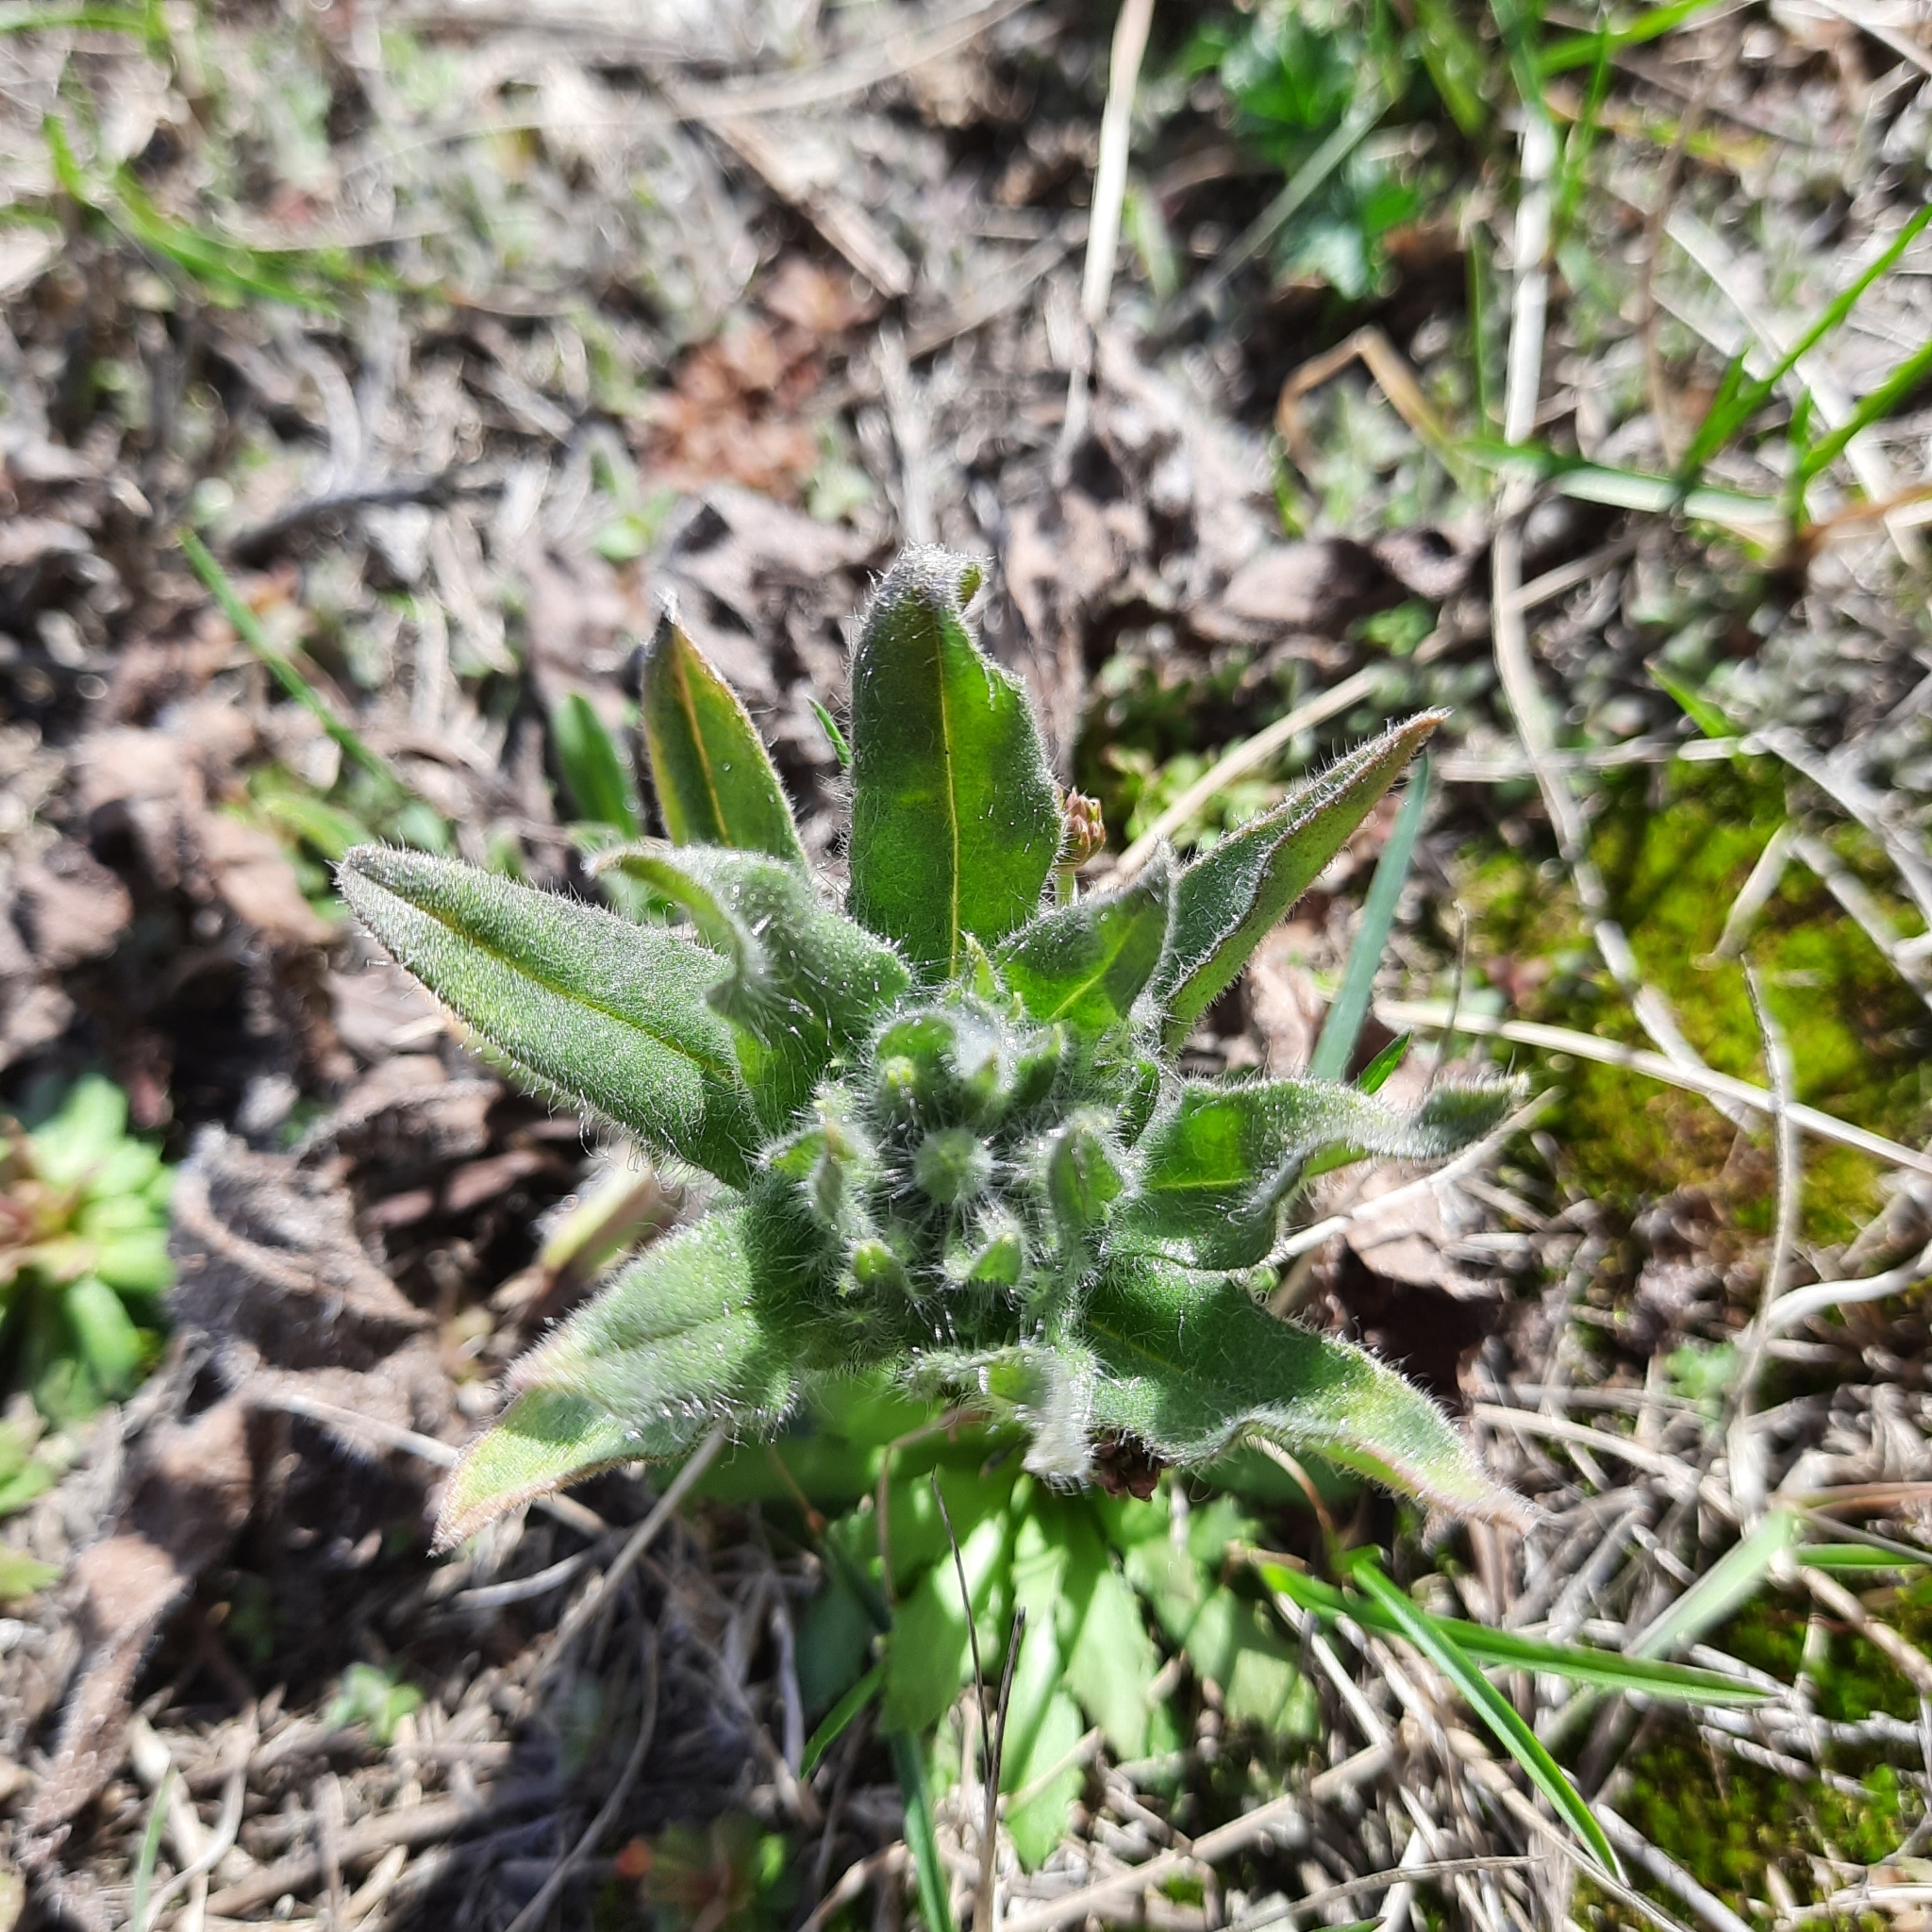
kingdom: Plantae
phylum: Tracheophyta
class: Magnoliopsida
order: Boraginales
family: Boraginaceae
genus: Nonea
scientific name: Nonea pulla
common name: Brown nonea
